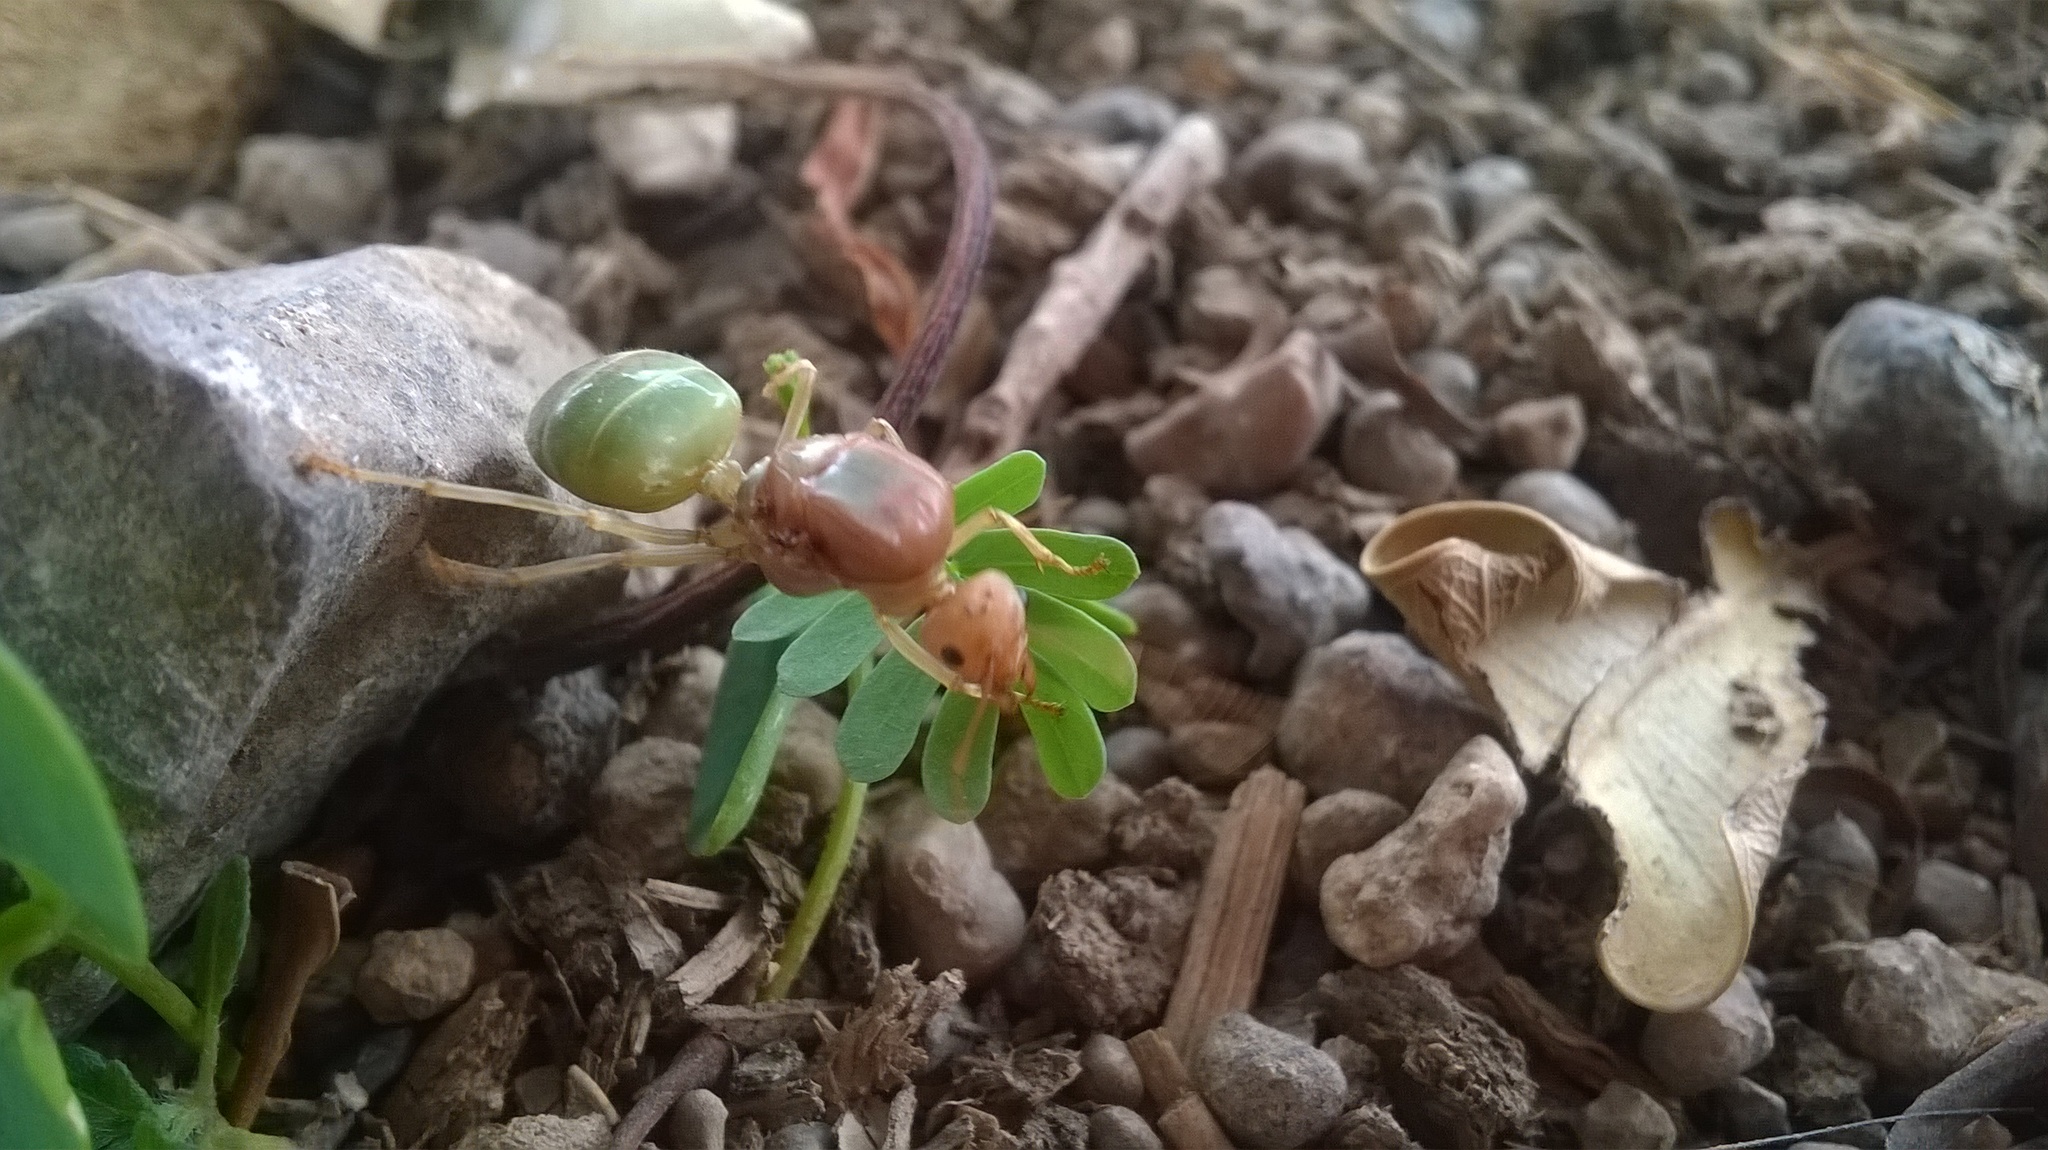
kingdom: Animalia
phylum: Arthropoda
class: Insecta
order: Hymenoptera
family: Formicidae
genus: Oecophylla
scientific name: Oecophylla smaragdina
